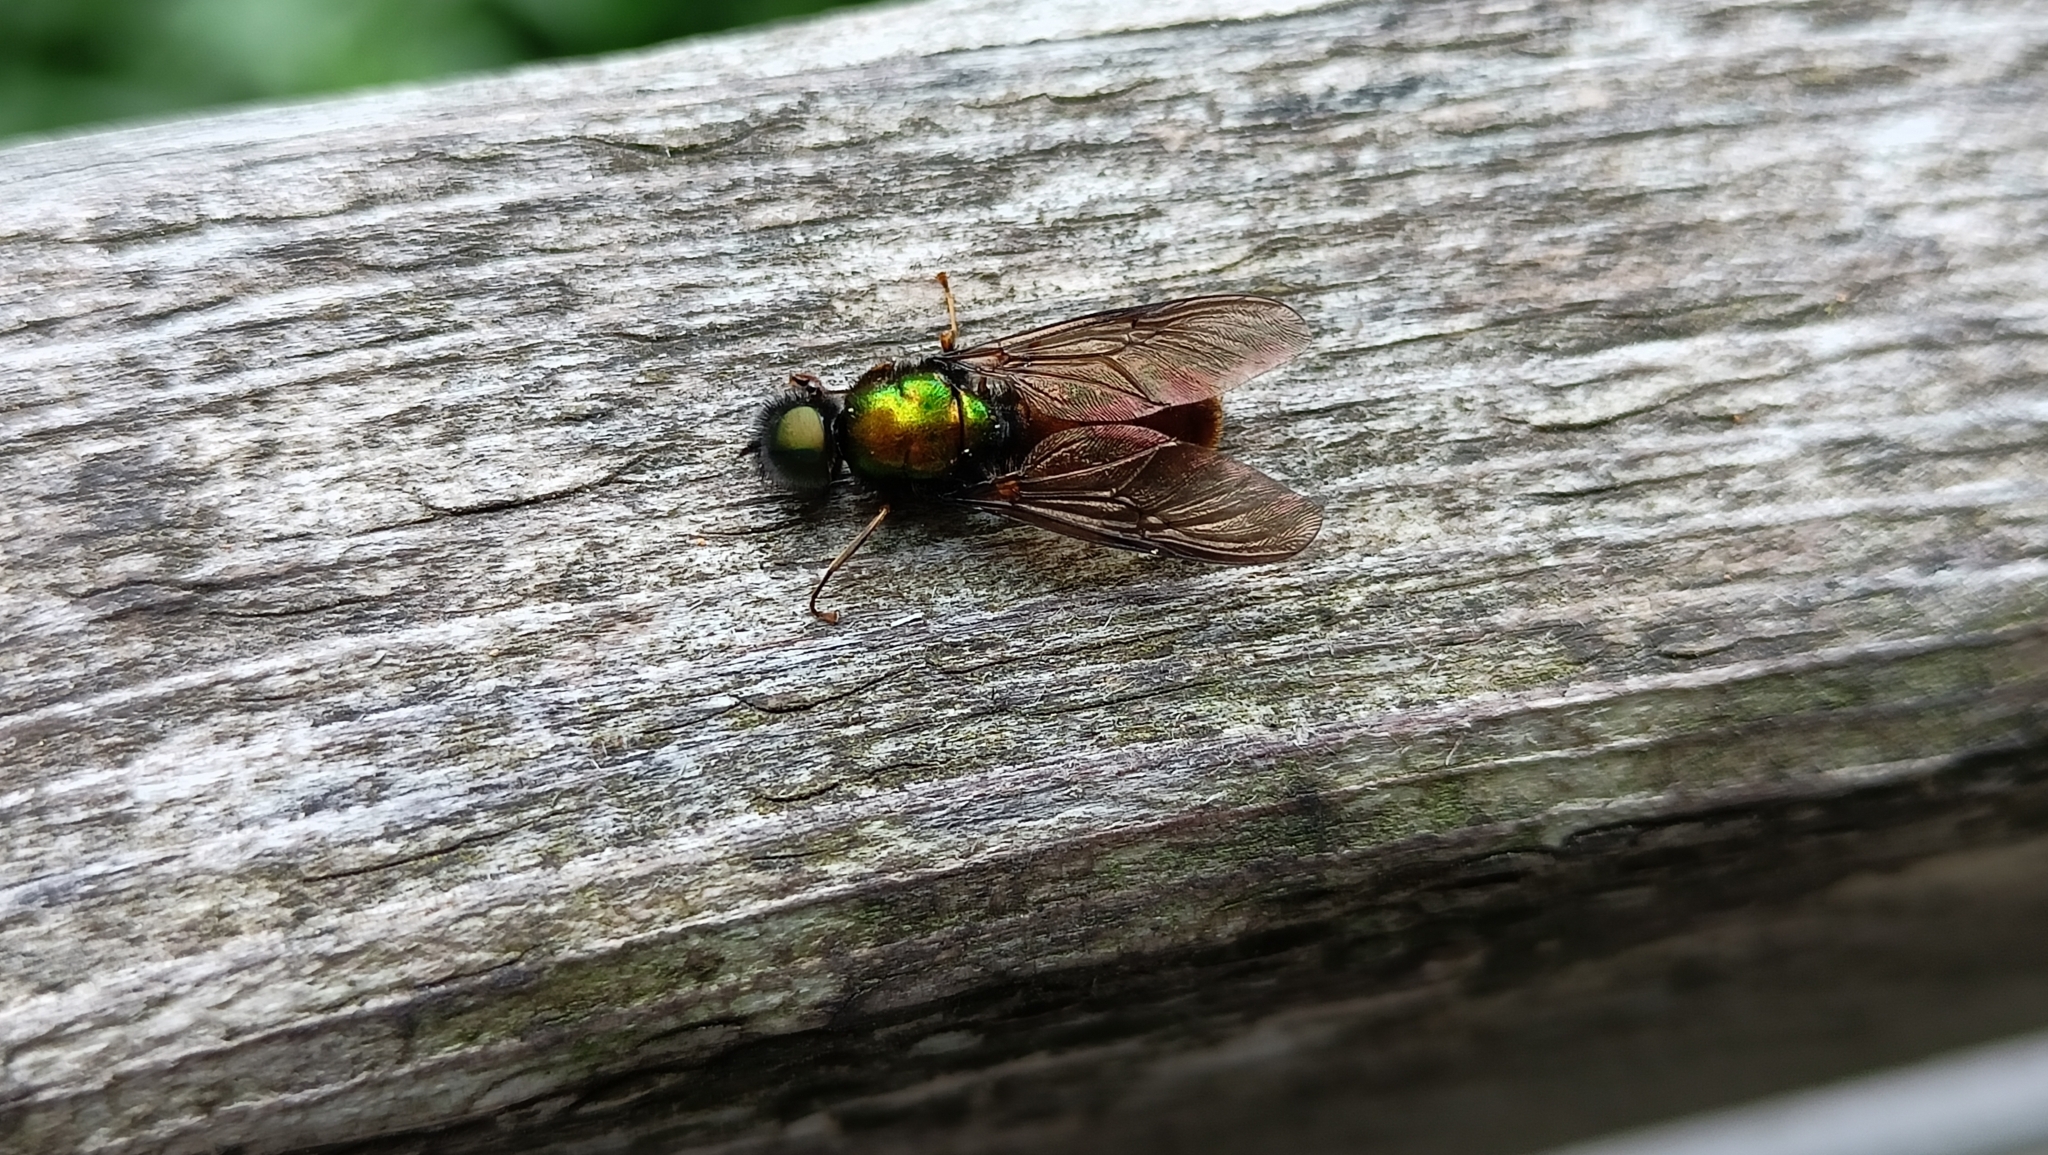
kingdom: Animalia
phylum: Arthropoda
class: Insecta
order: Diptera
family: Stratiomyidae
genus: Chloromyia
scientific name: Chloromyia formosa
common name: Soldier fly
